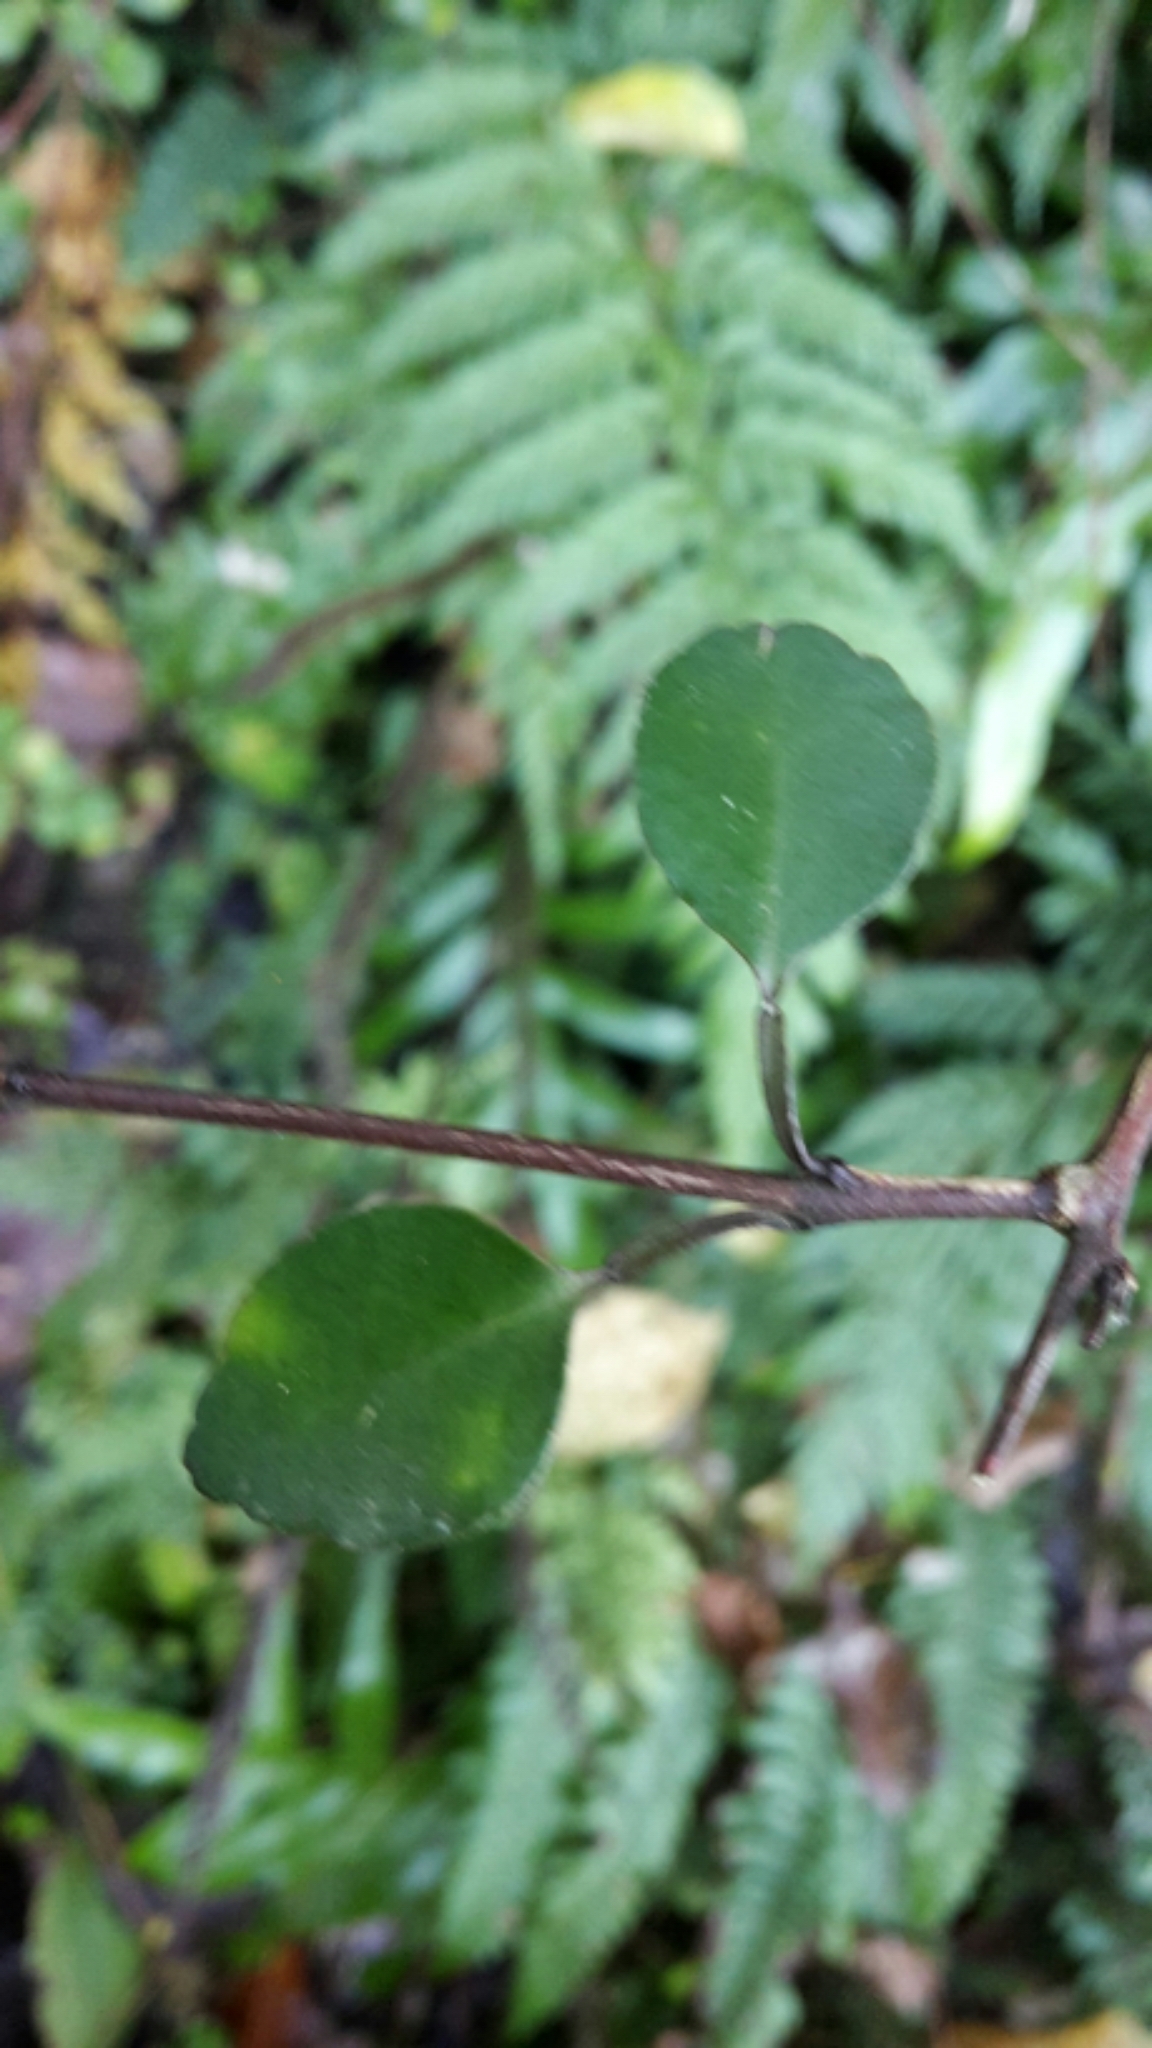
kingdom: Plantae
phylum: Tracheophyta
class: Magnoliopsida
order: Sapindales
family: Rutaceae
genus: Melicope
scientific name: Melicope simplex
